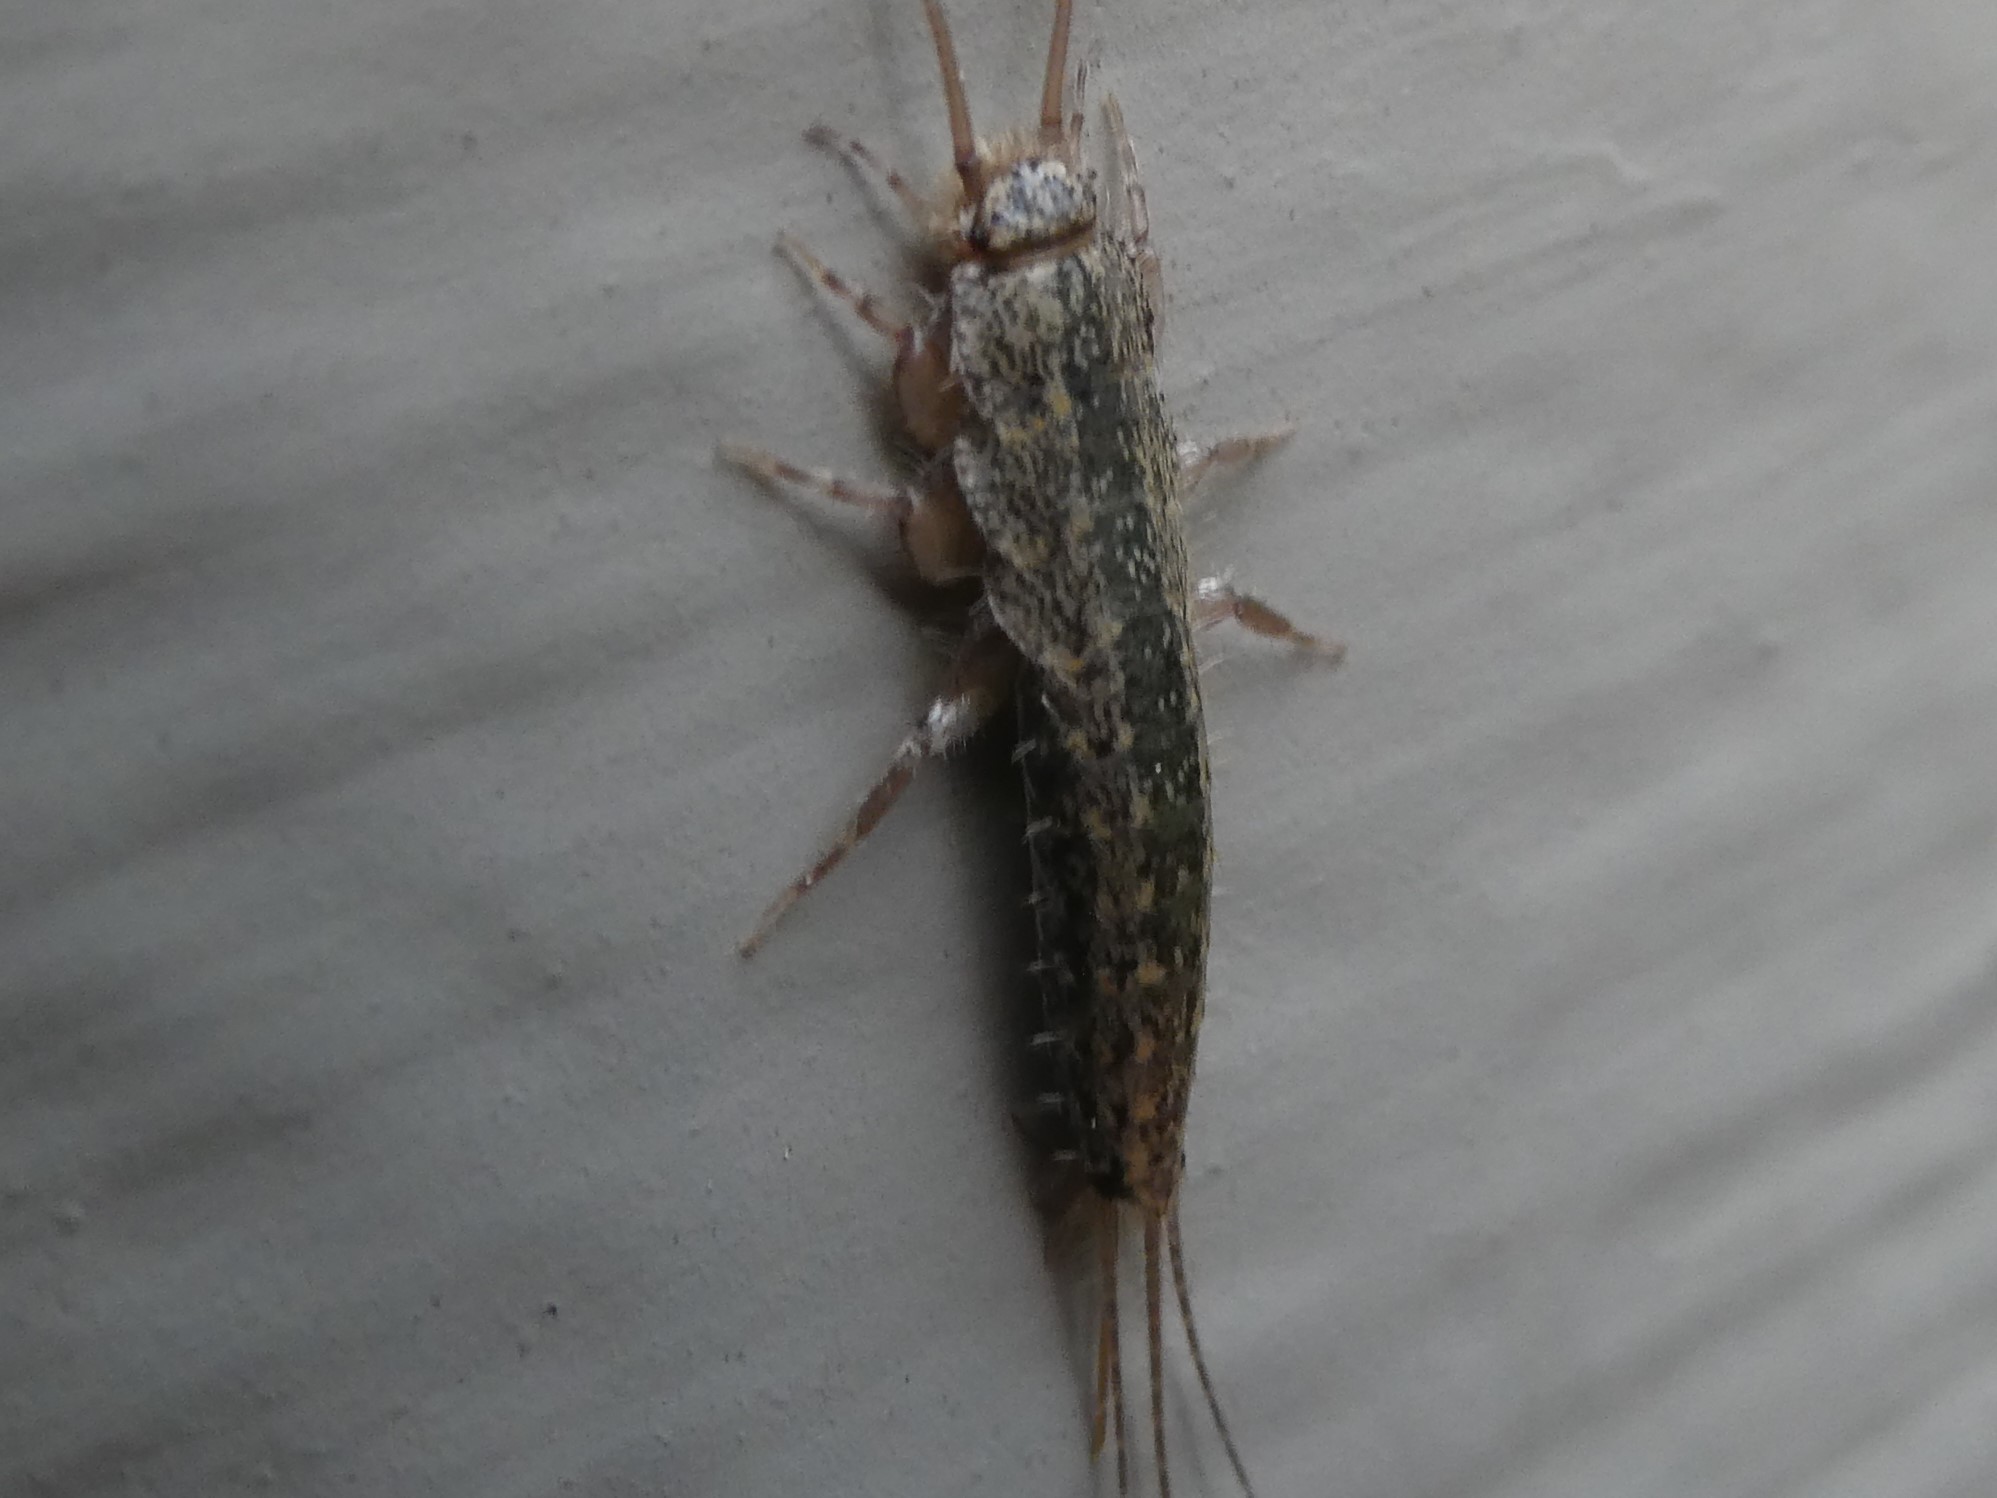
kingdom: Animalia
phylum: Arthropoda
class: Insecta
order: Zygentoma
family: Lepismatidae
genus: Ctenolepisma
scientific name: Ctenolepisma lineata
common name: Four-lined silverfish
